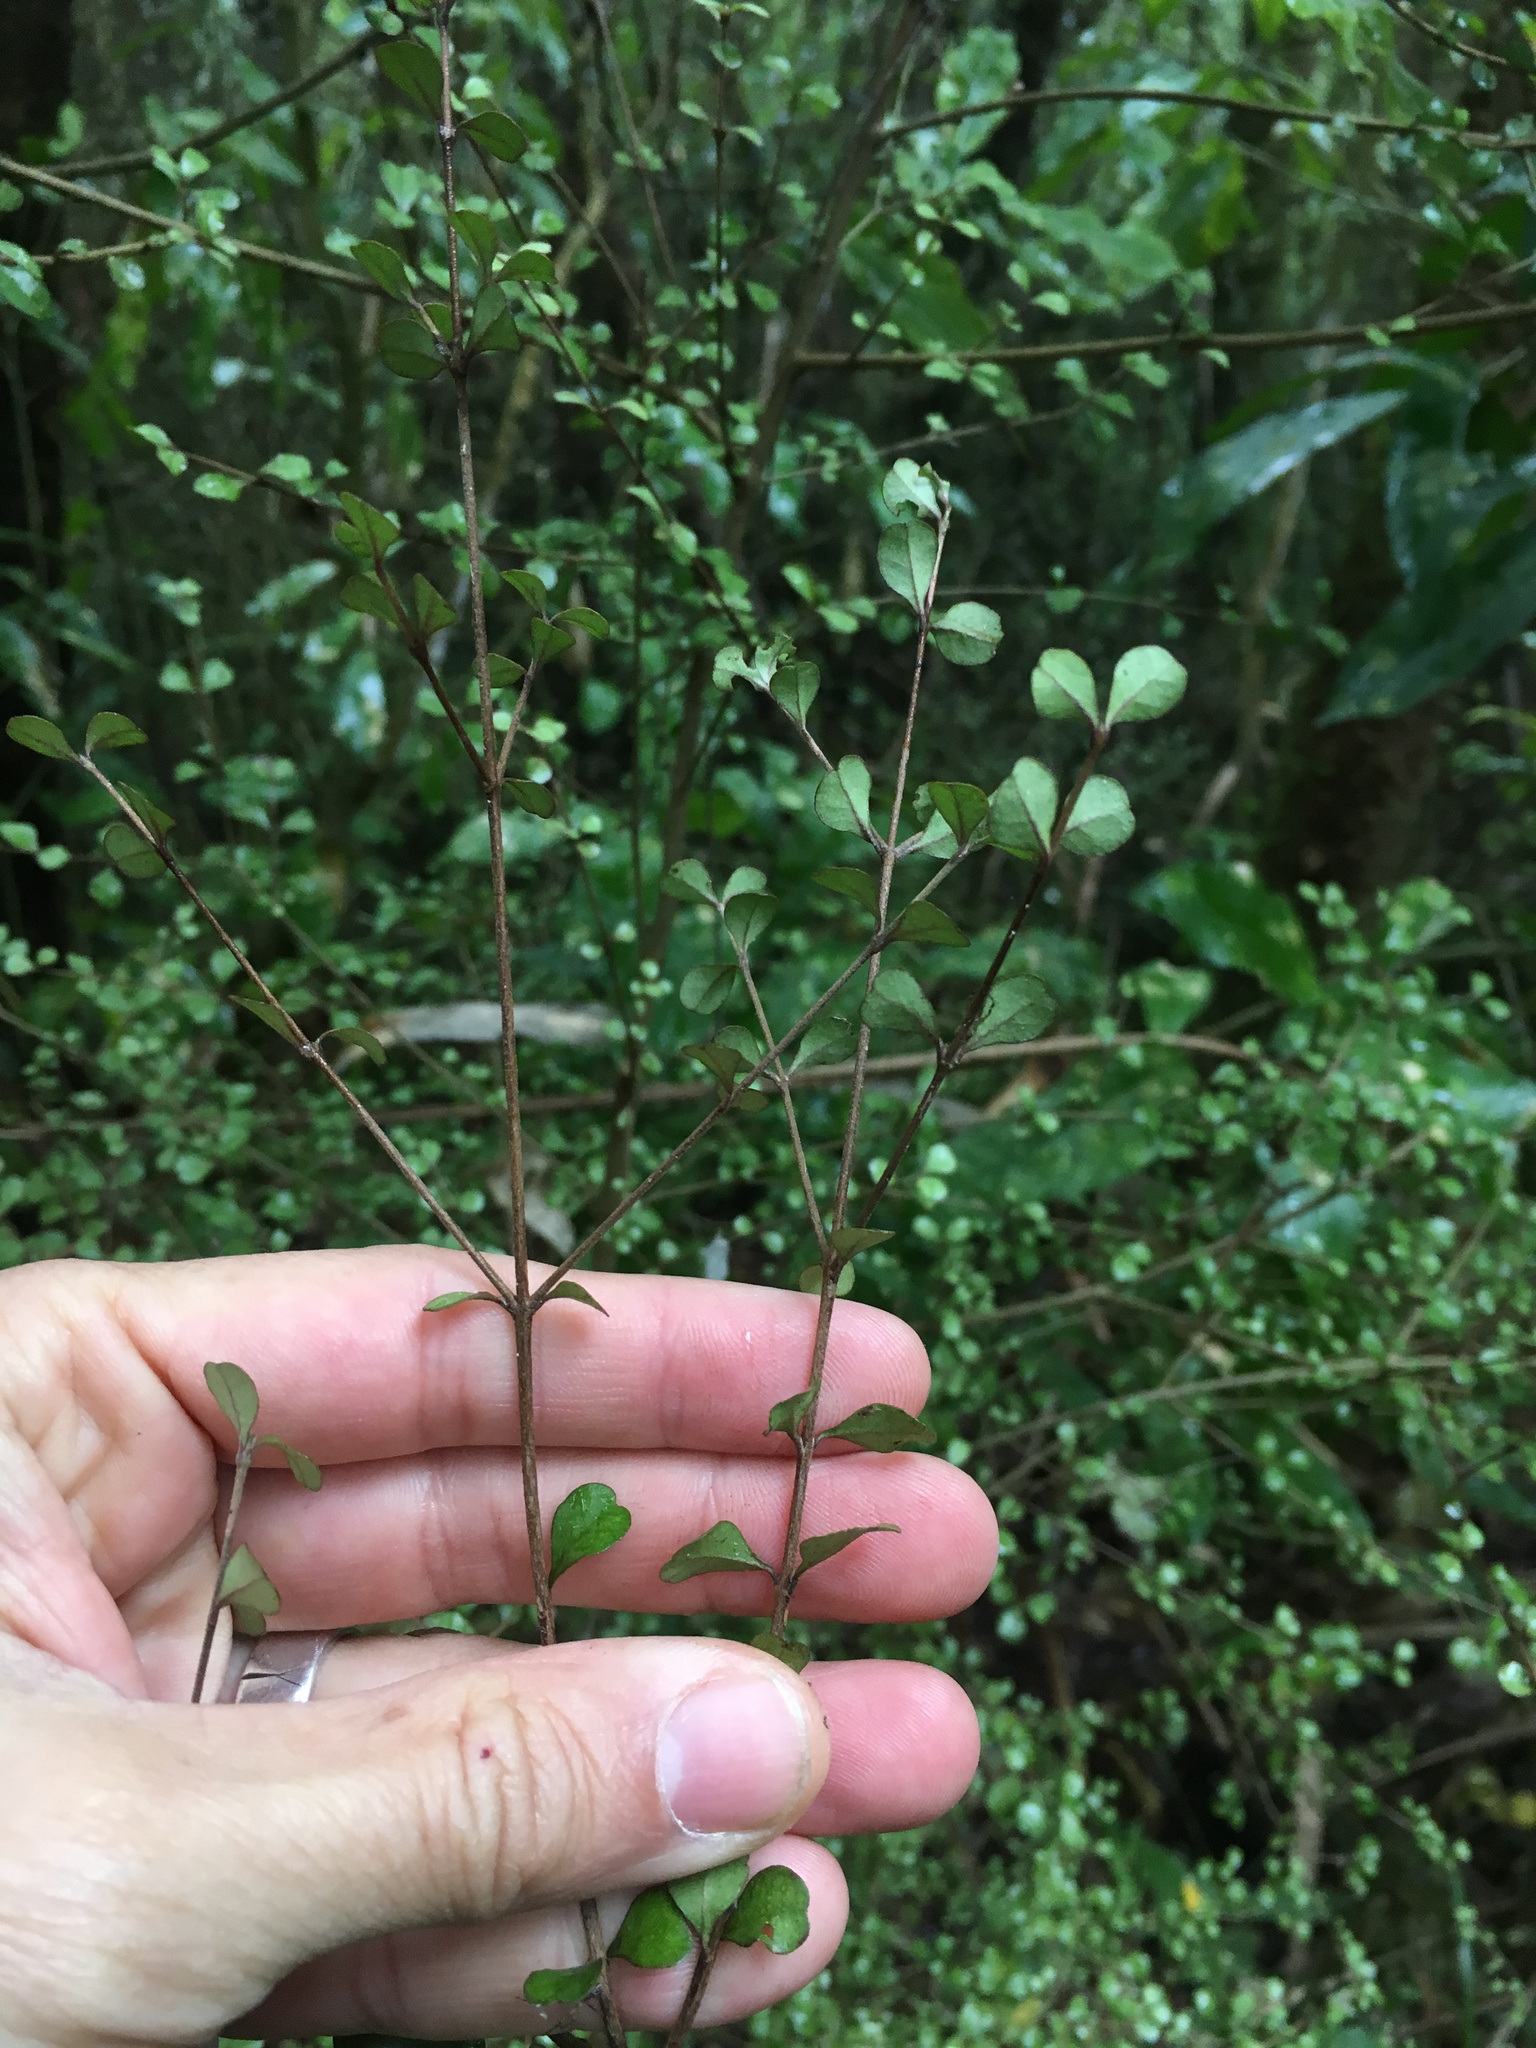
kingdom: Plantae
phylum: Tracheophyta
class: Magnoliopsida
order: Myrtales
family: Myrtaceae
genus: Lophomyrtus
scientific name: Lophomyrtus obcordata
